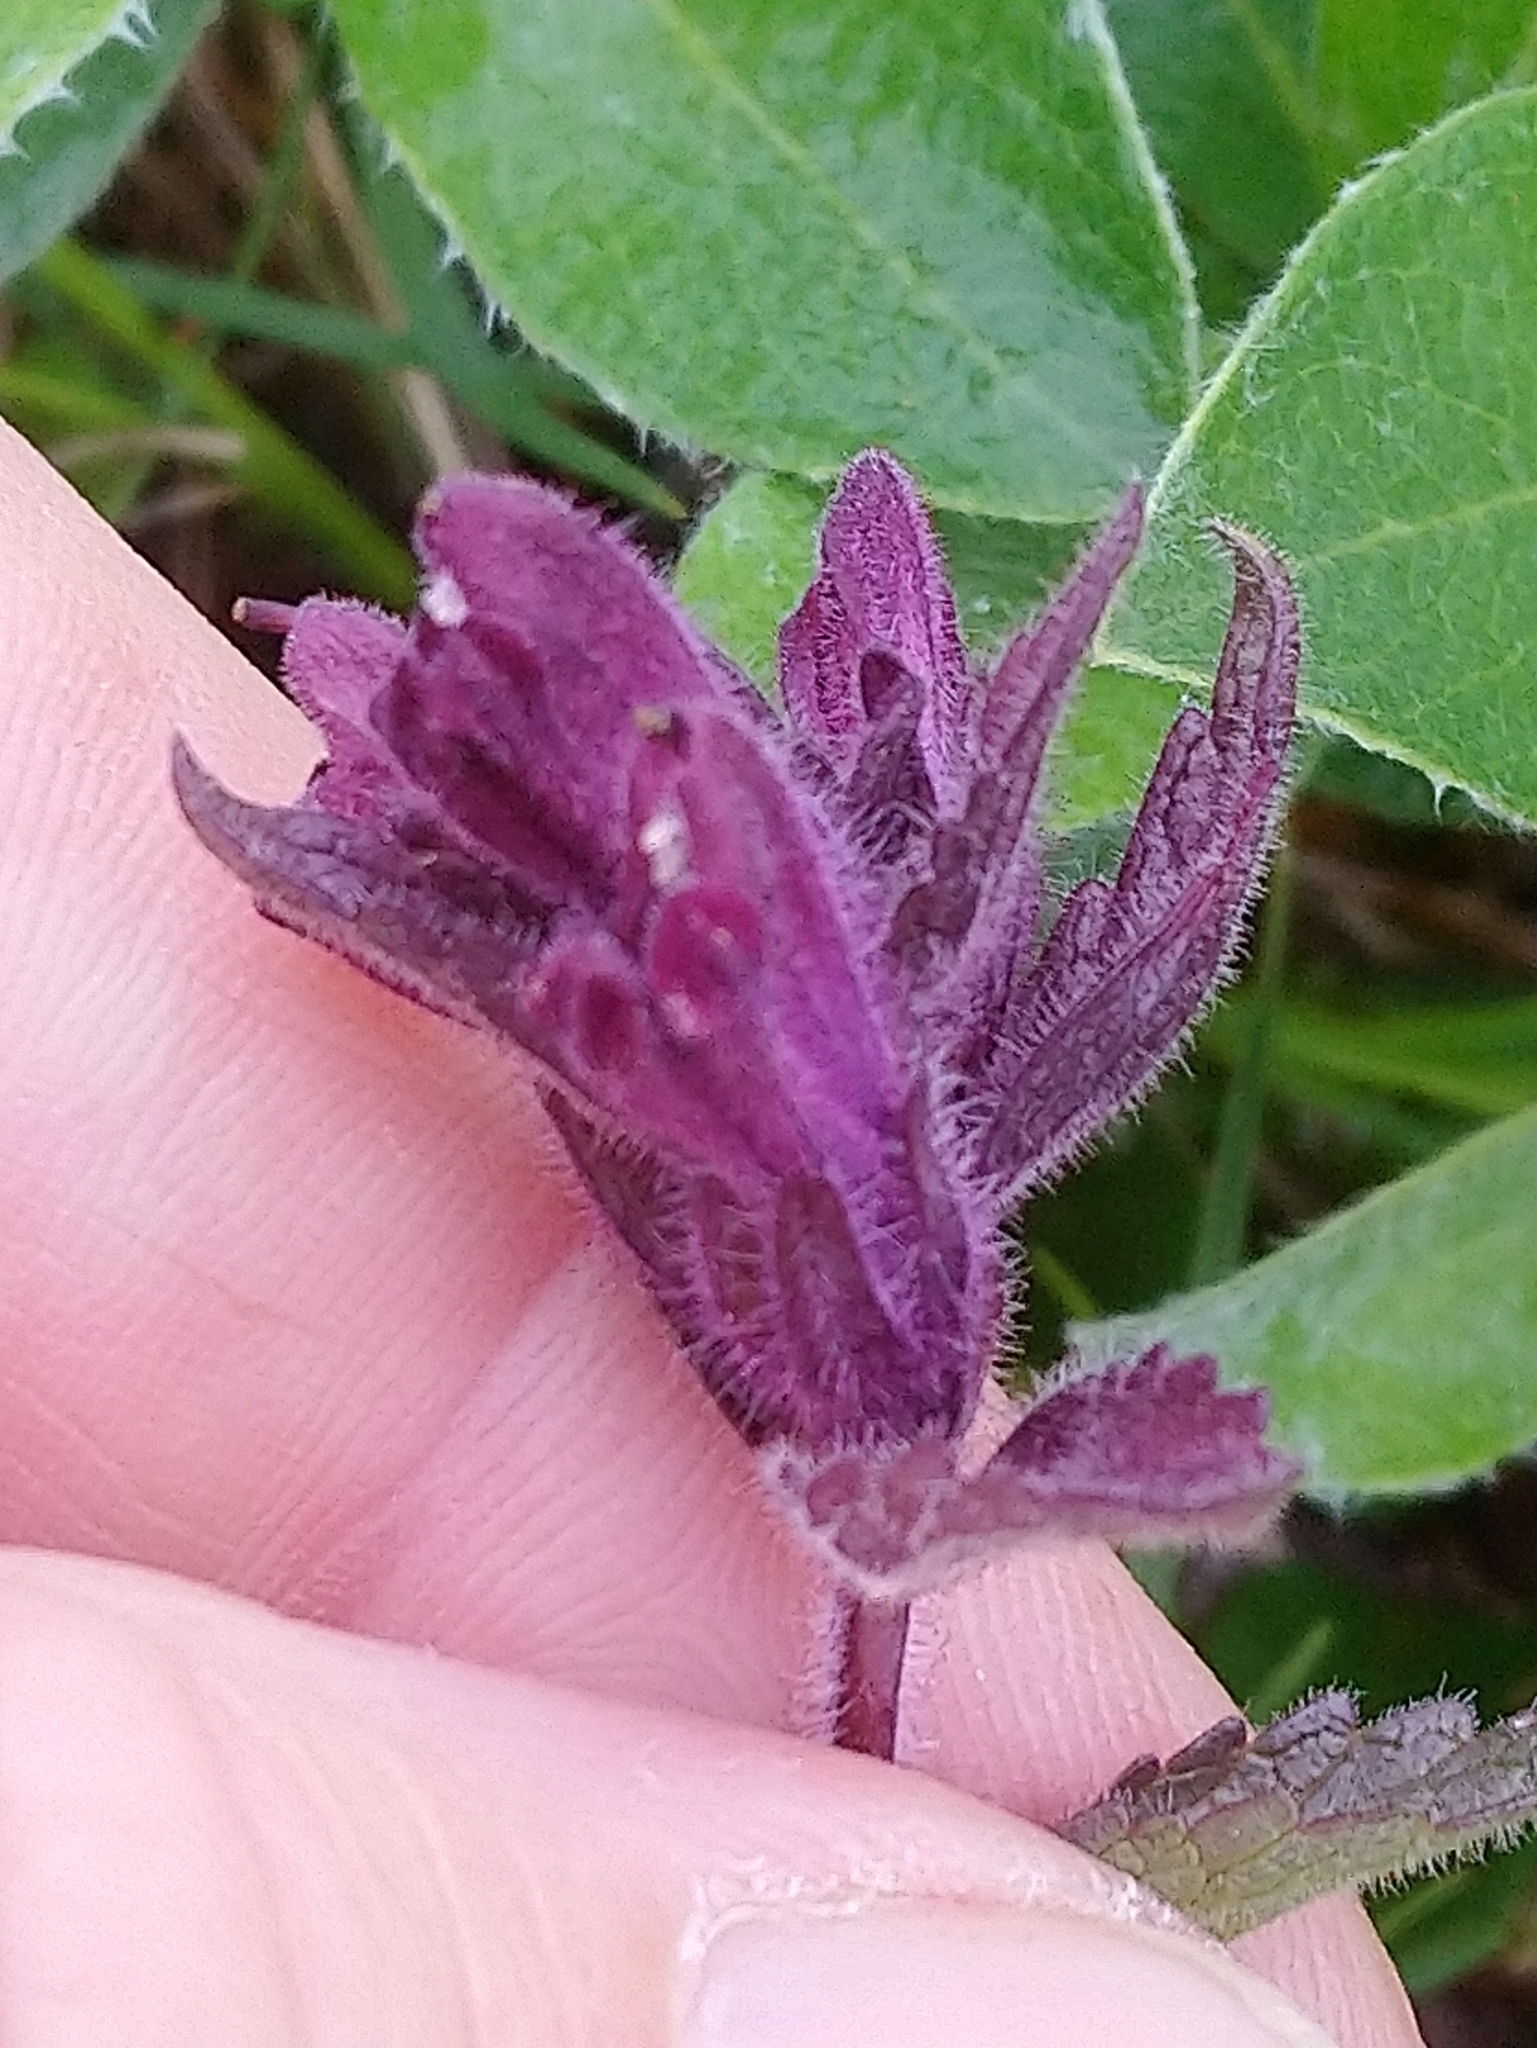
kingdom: Plantae
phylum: Tracheophyta
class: Magnoliopsida
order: Lamiales
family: Orobanchaceae
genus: Bartsia
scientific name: Bartsia alpina
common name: Alpine bartsia
